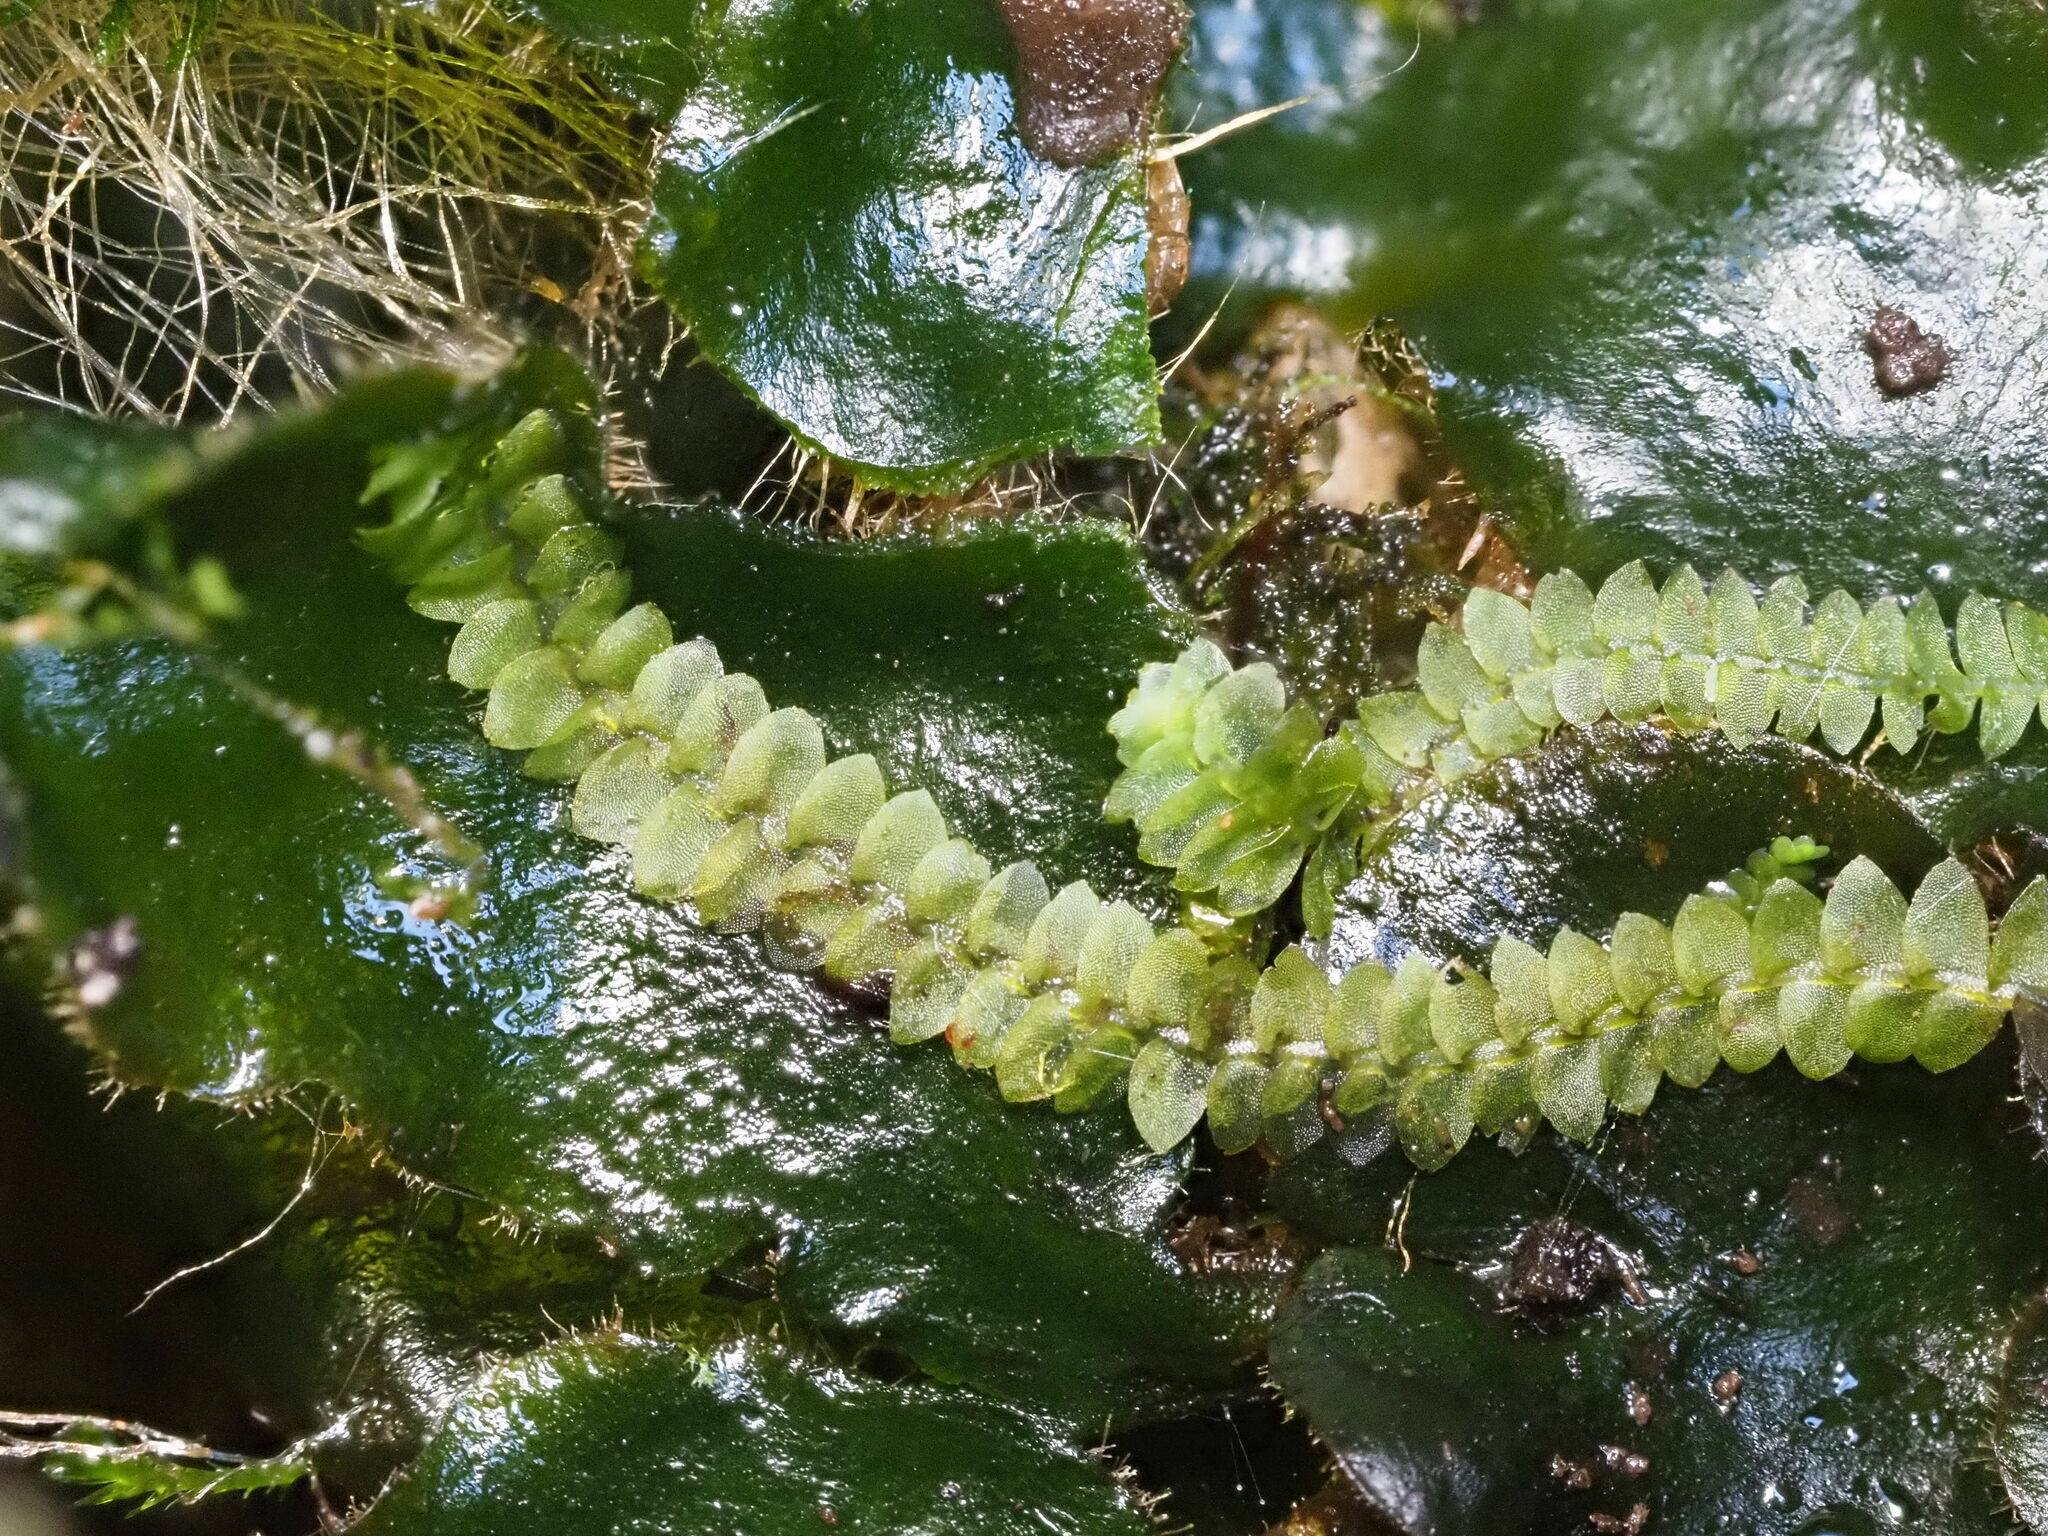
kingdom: Plantae
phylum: Marchantiophyta
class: Jungermanniopsida
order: Jungermanniales
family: Calypogeiaceae
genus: Calypogeia
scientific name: Calypogeia tosana
